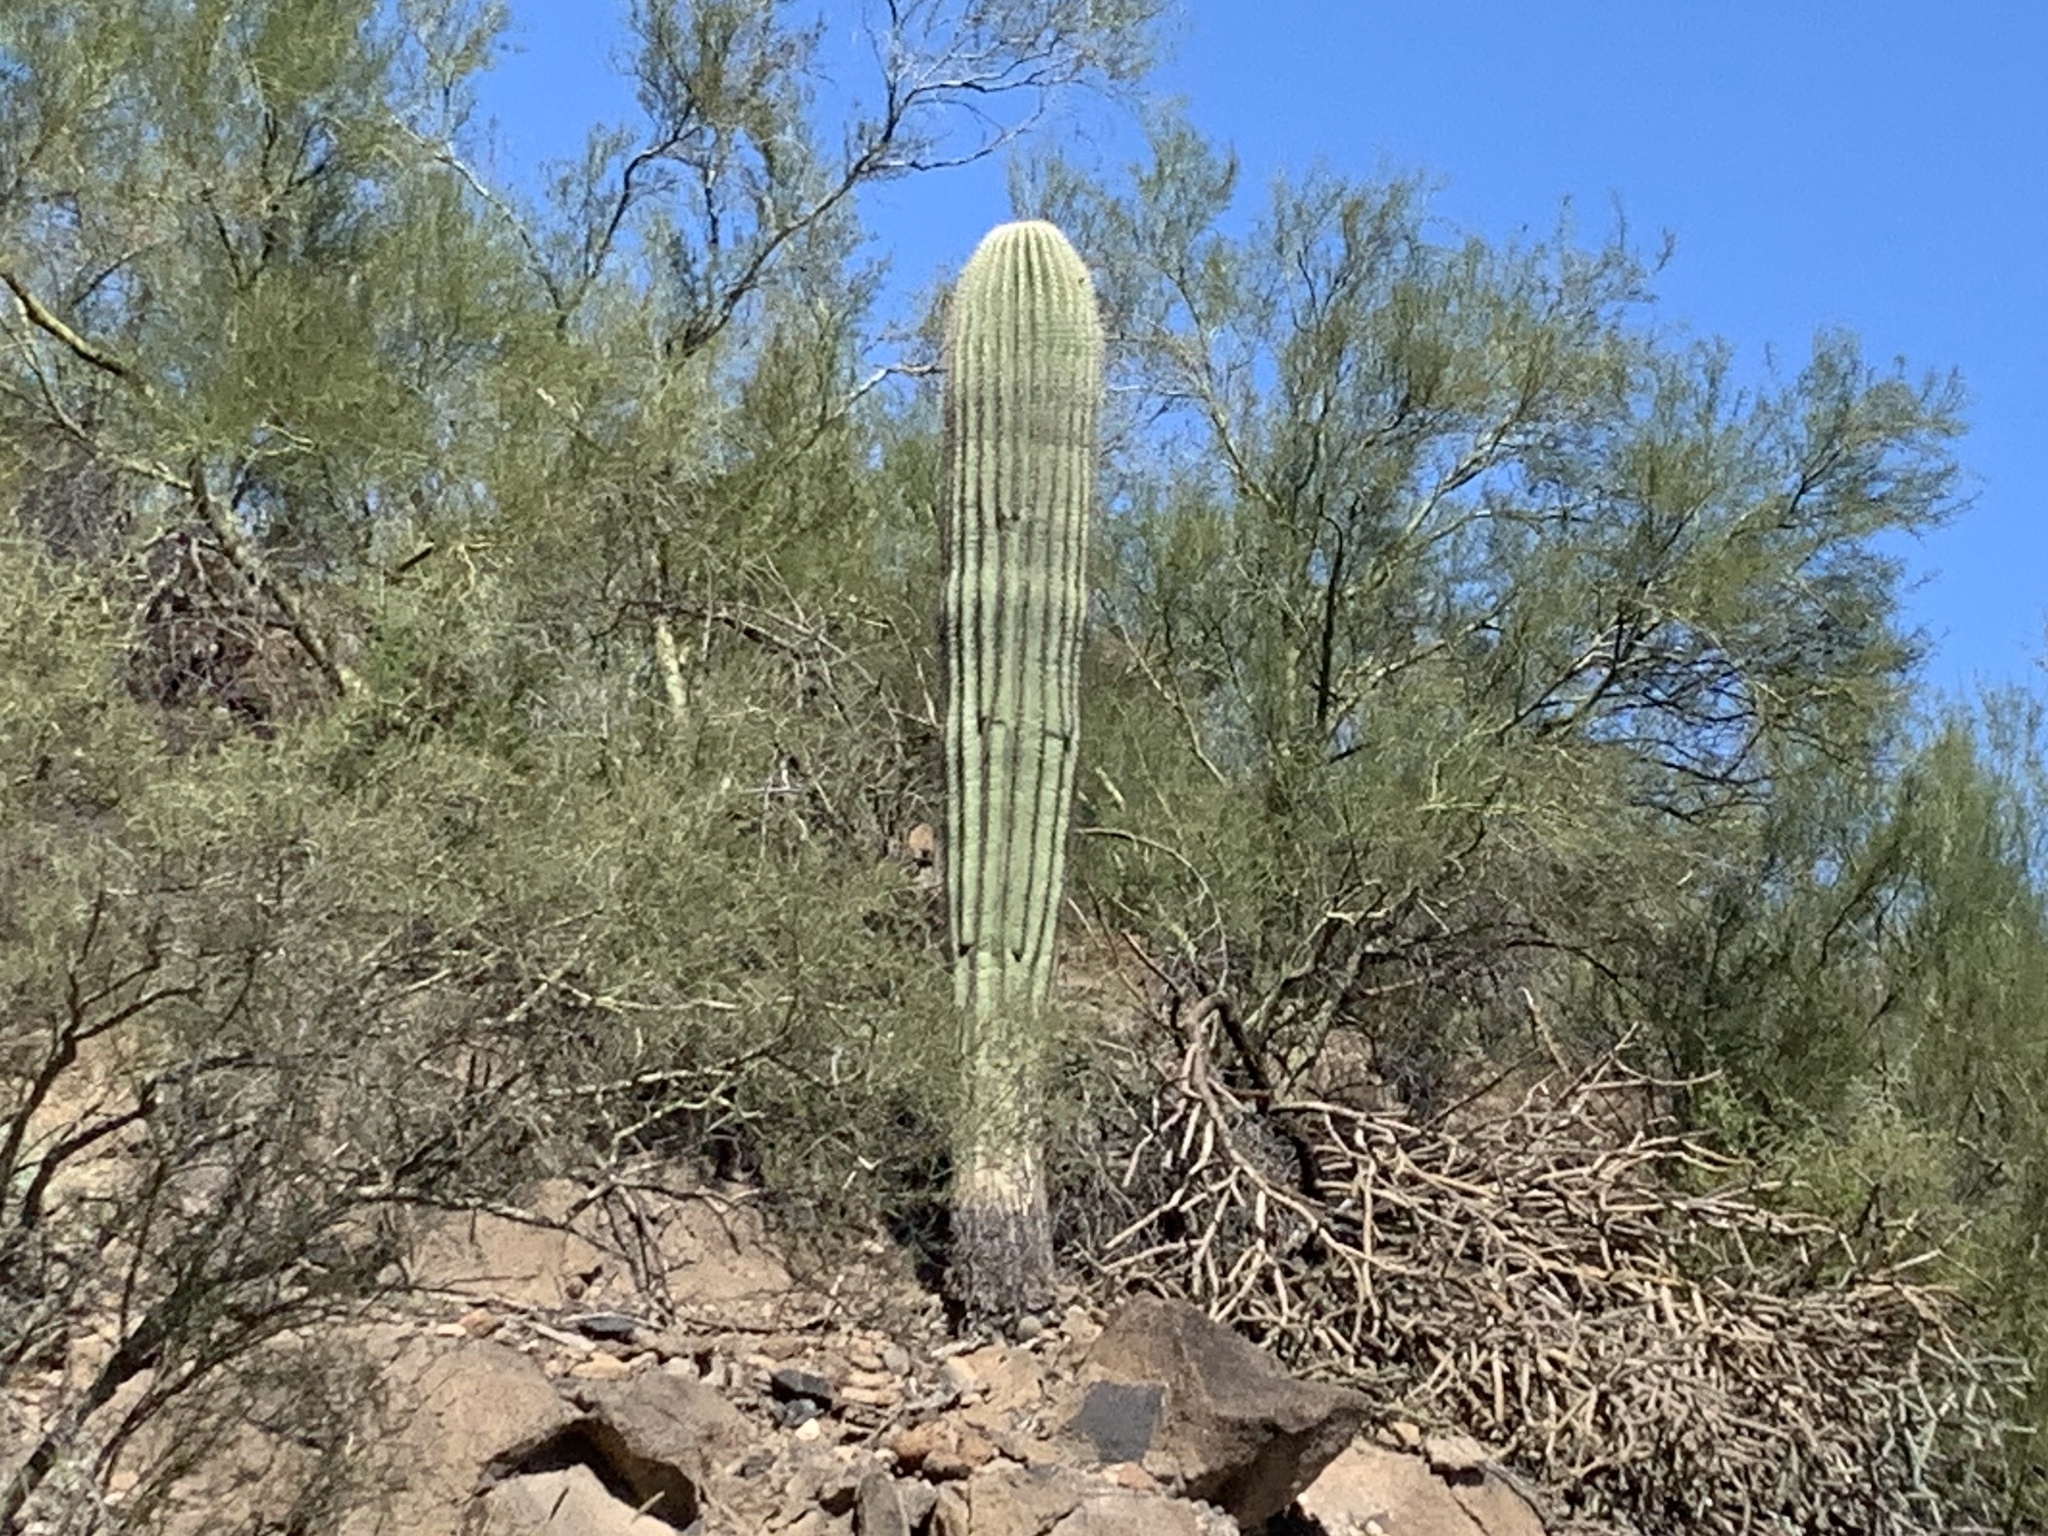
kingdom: Plantae
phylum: Tracheophyta
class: Magnoliopsida
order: Caryophyllales
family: Cactaceae
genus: Carnegiea
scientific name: Carnegiea gigantea
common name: Saguaro
